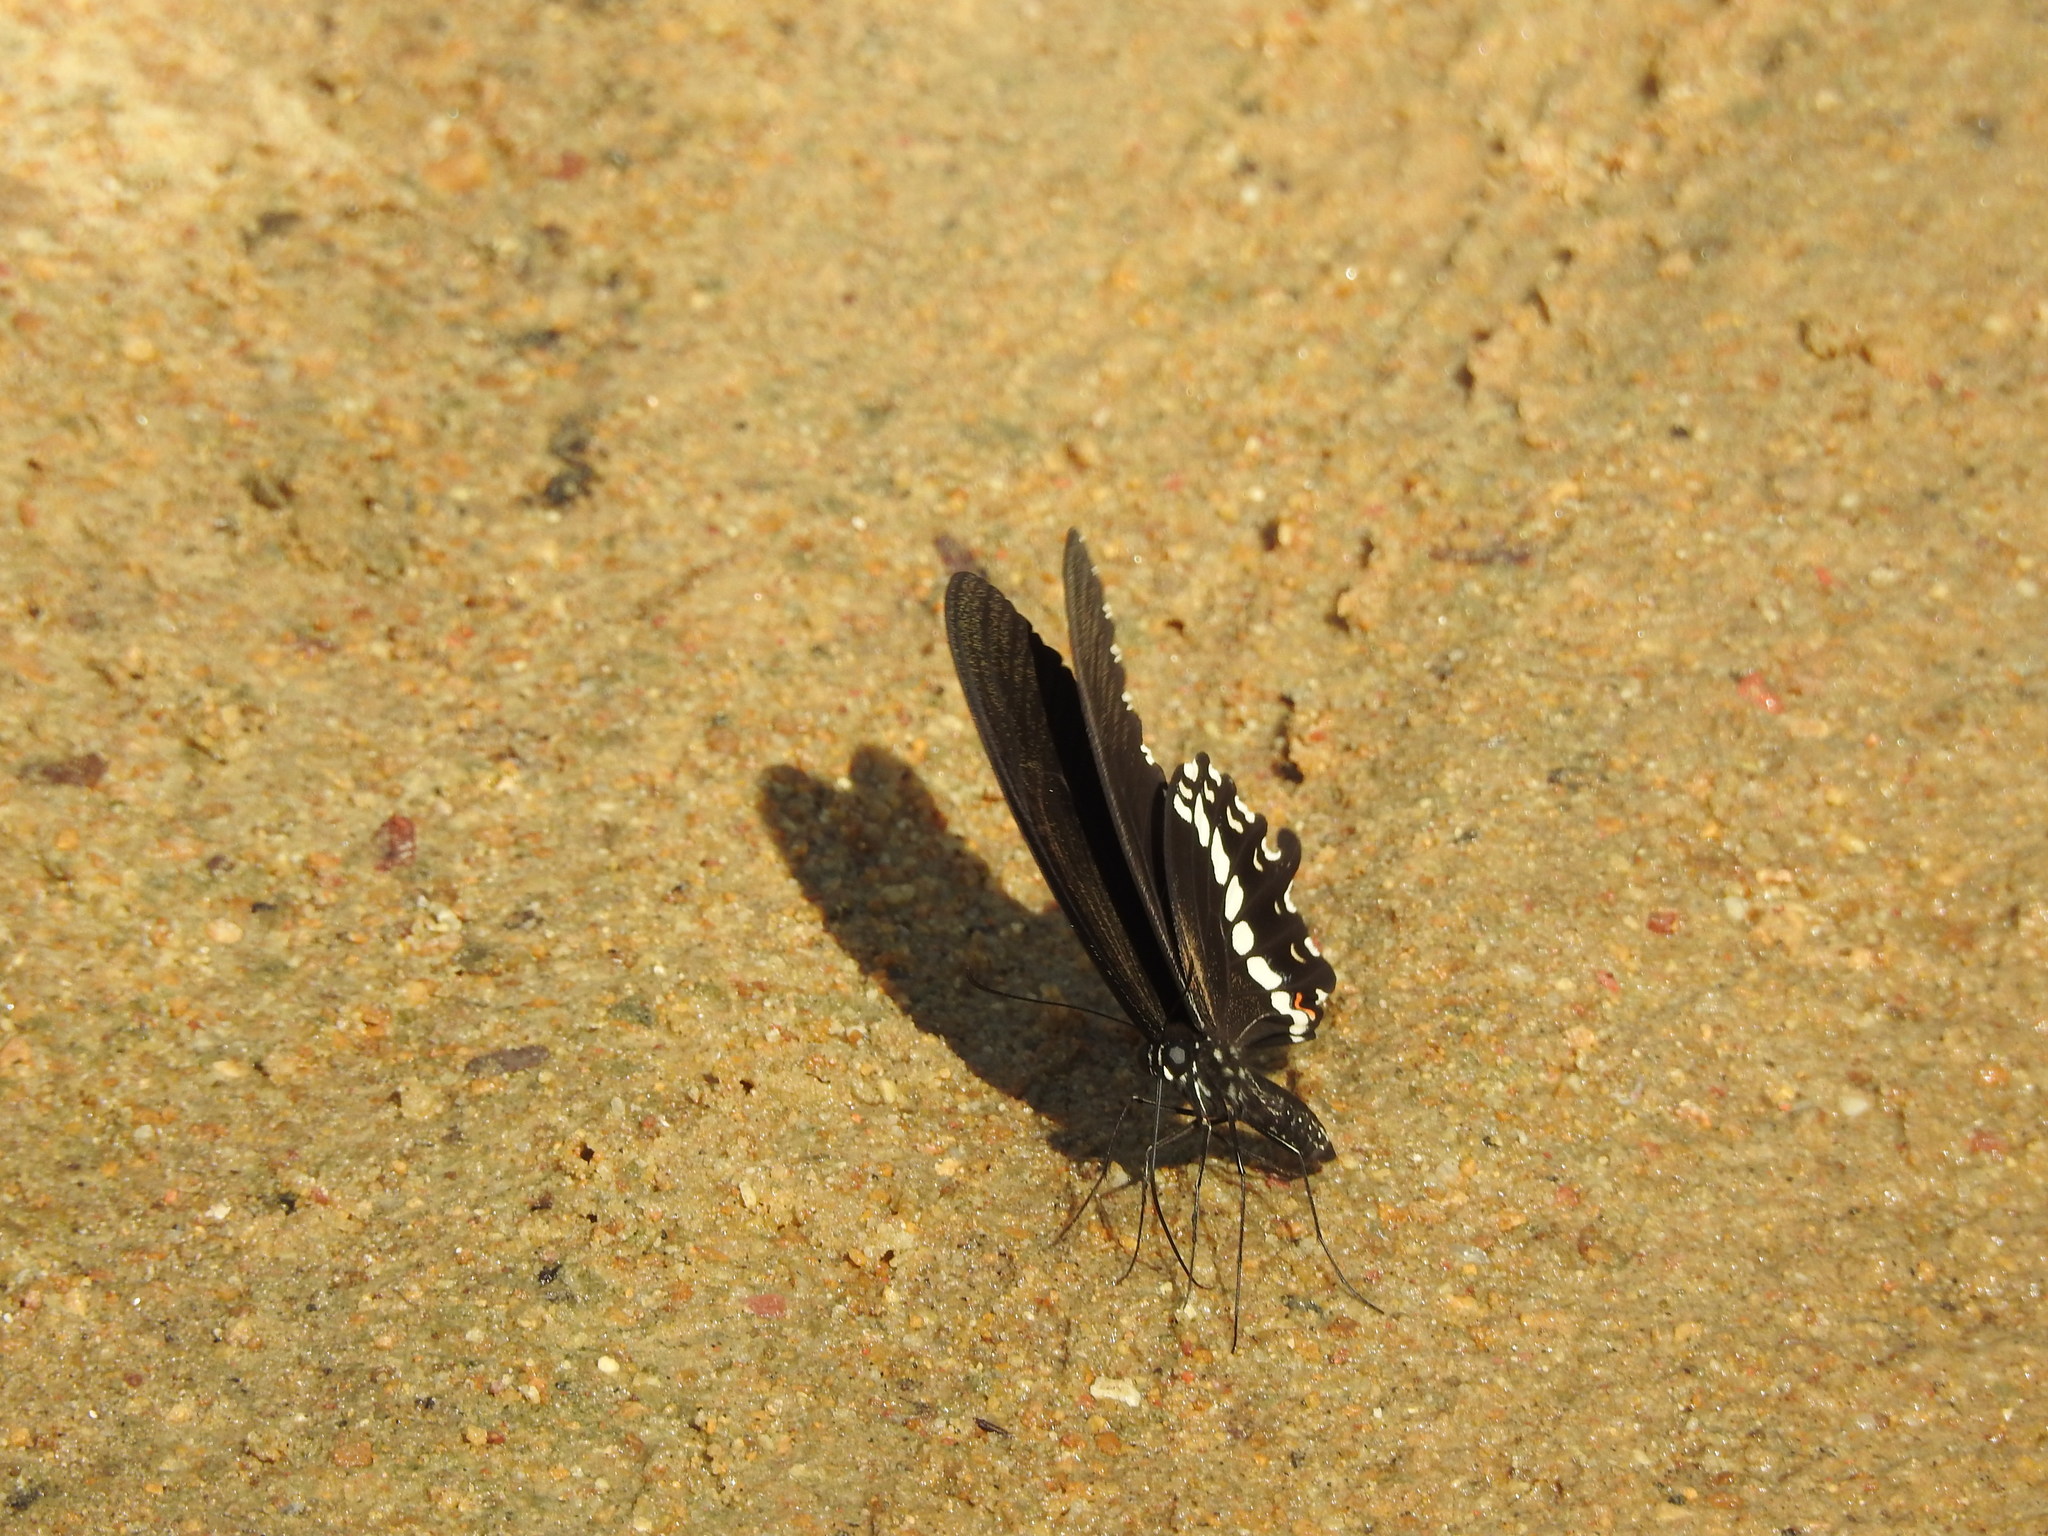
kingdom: Animalia
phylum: Arthropoda
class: Insecta
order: Lepidoptera
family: Papilionidae
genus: Papilio
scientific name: Papilio polytes
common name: Common mormon
